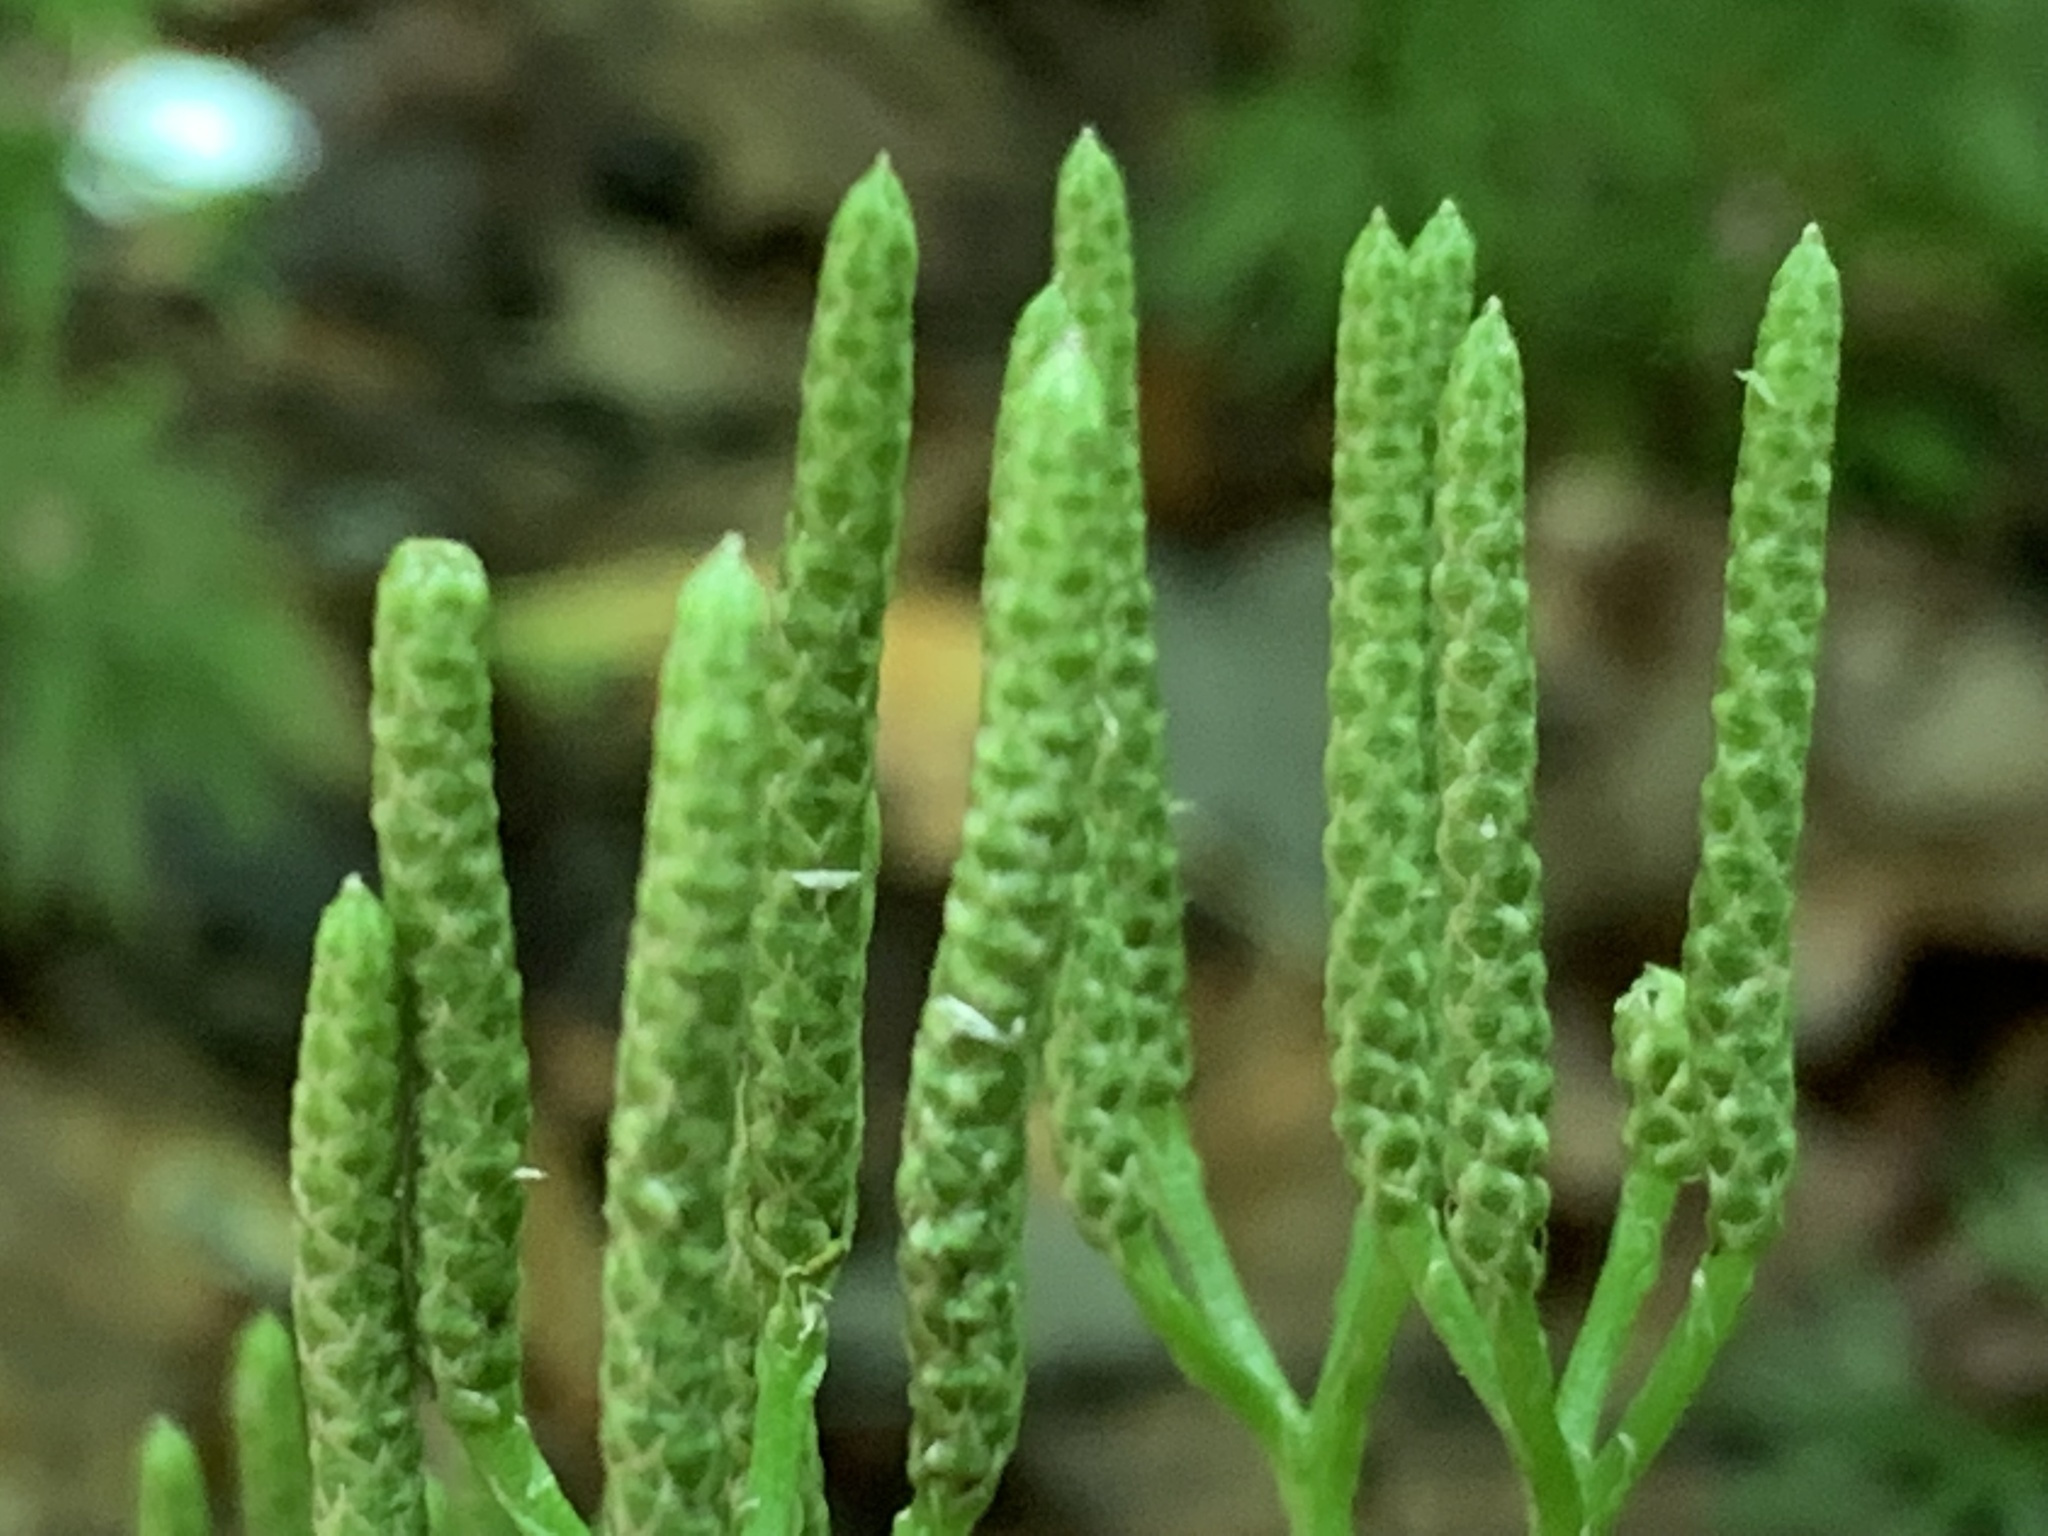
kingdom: Plantae
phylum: Tracheophyta
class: Lycopodiopsida
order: Lycopodiales
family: Lycopodiaceae
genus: Diphasiastrum
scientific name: Diphasiastrum digitatum
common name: Southern running-pine
